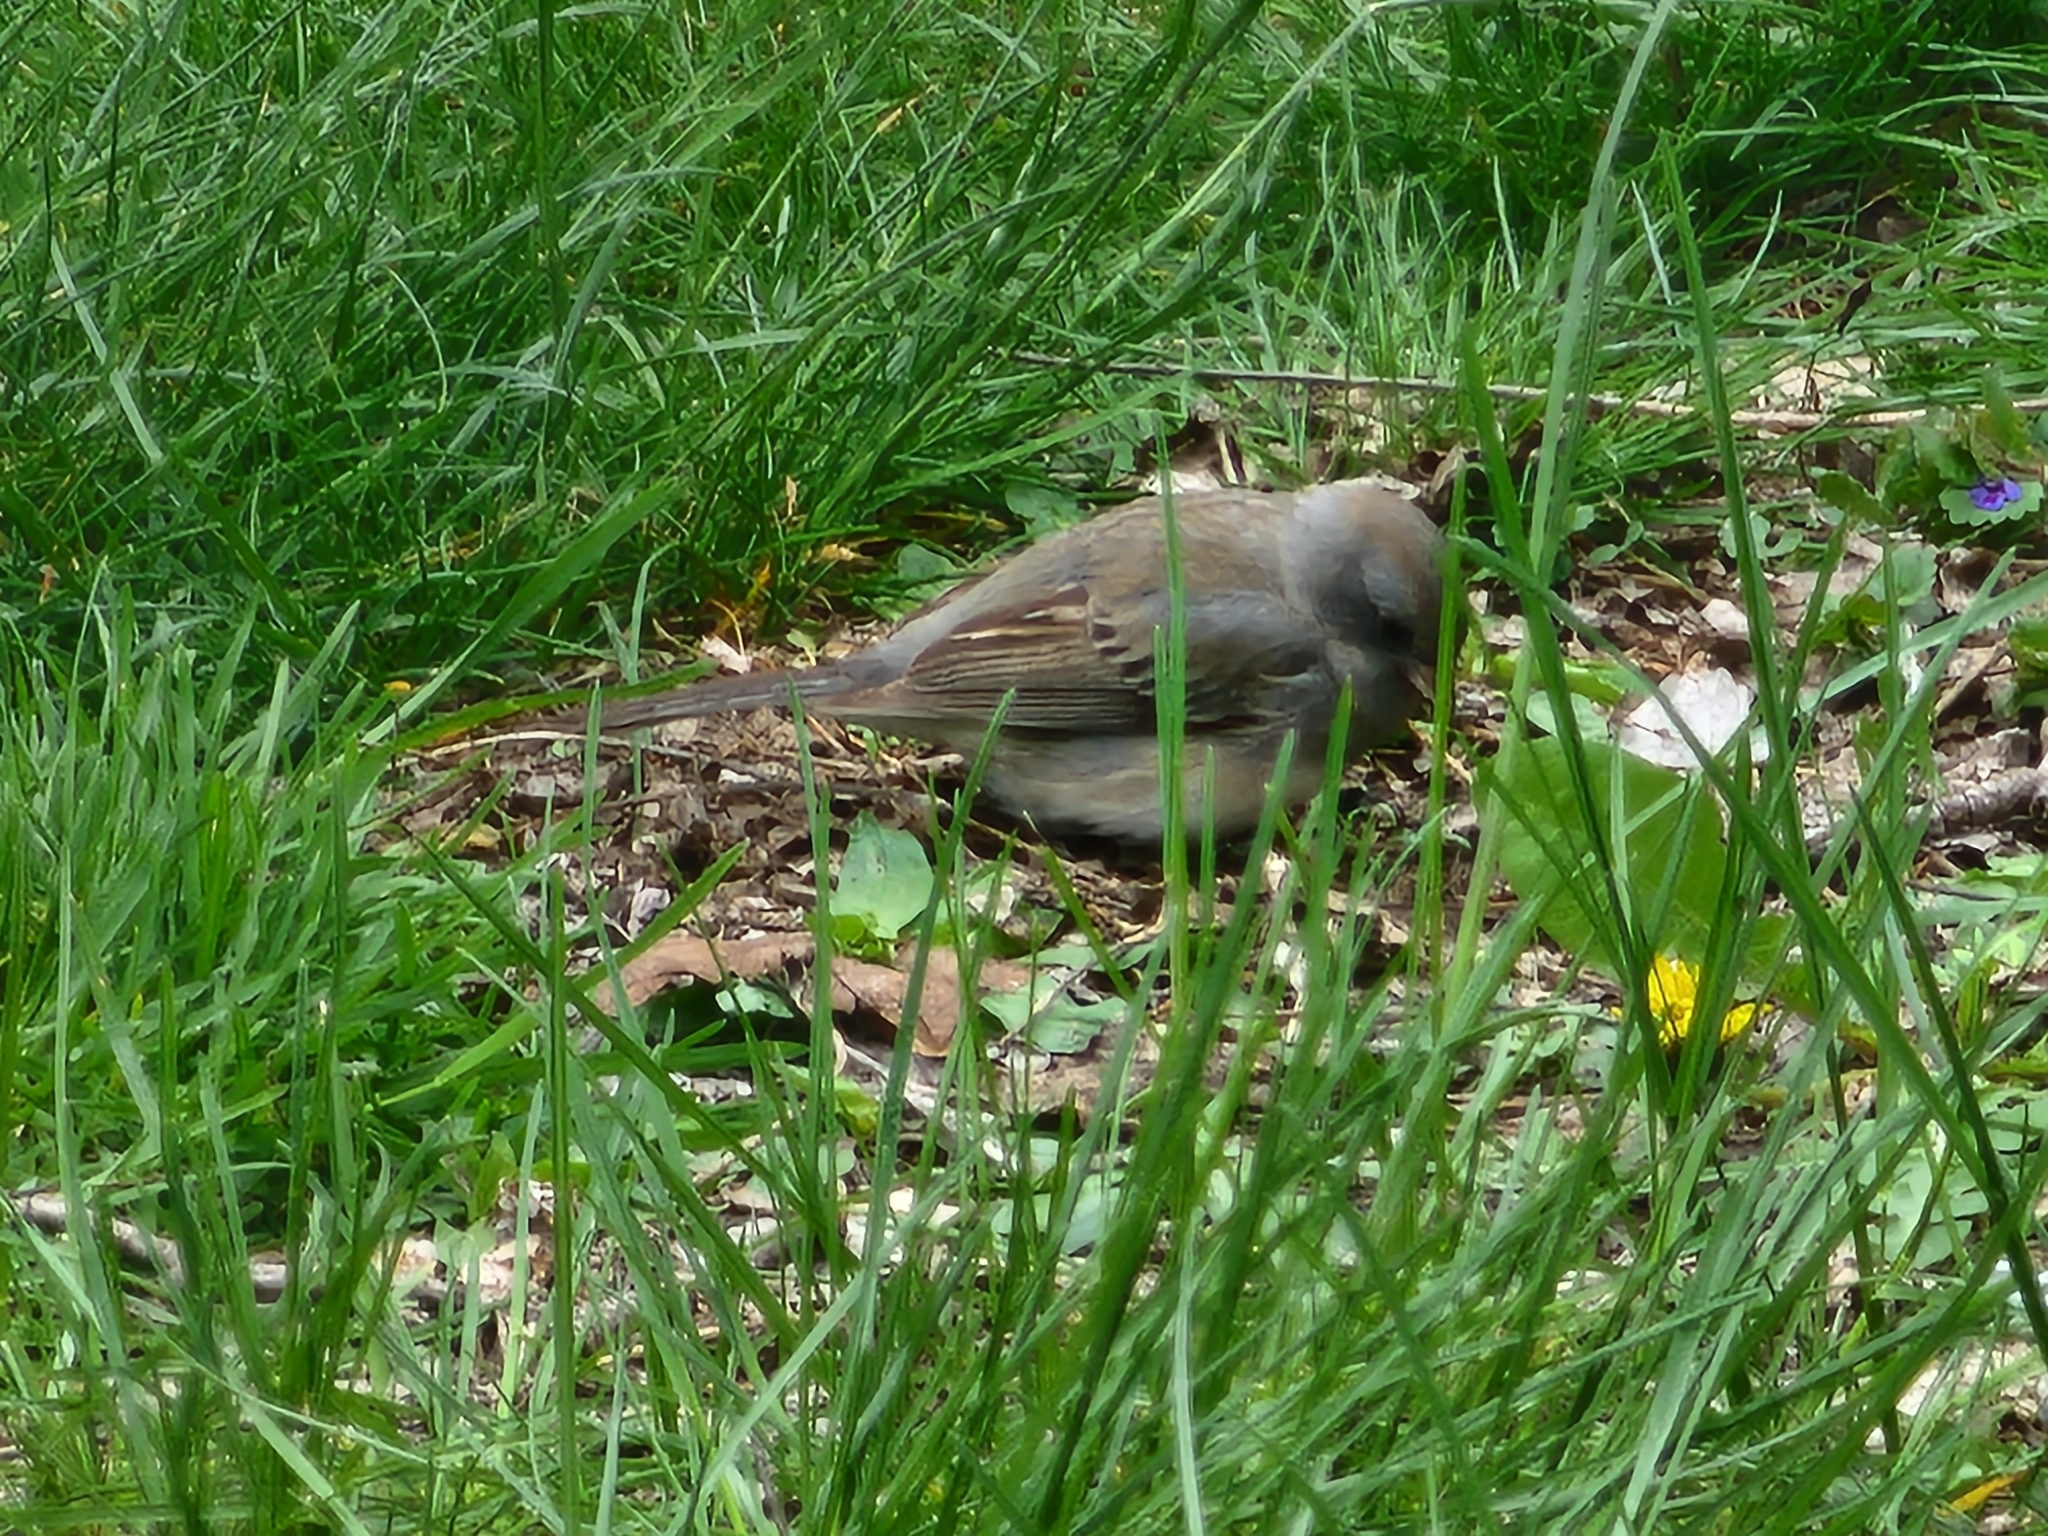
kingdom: Animalia
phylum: Chordata
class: Aves
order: Passeriformes
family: Passerellidae
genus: Junco
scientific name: Junco hyemalis
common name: Dark-eyed junco
